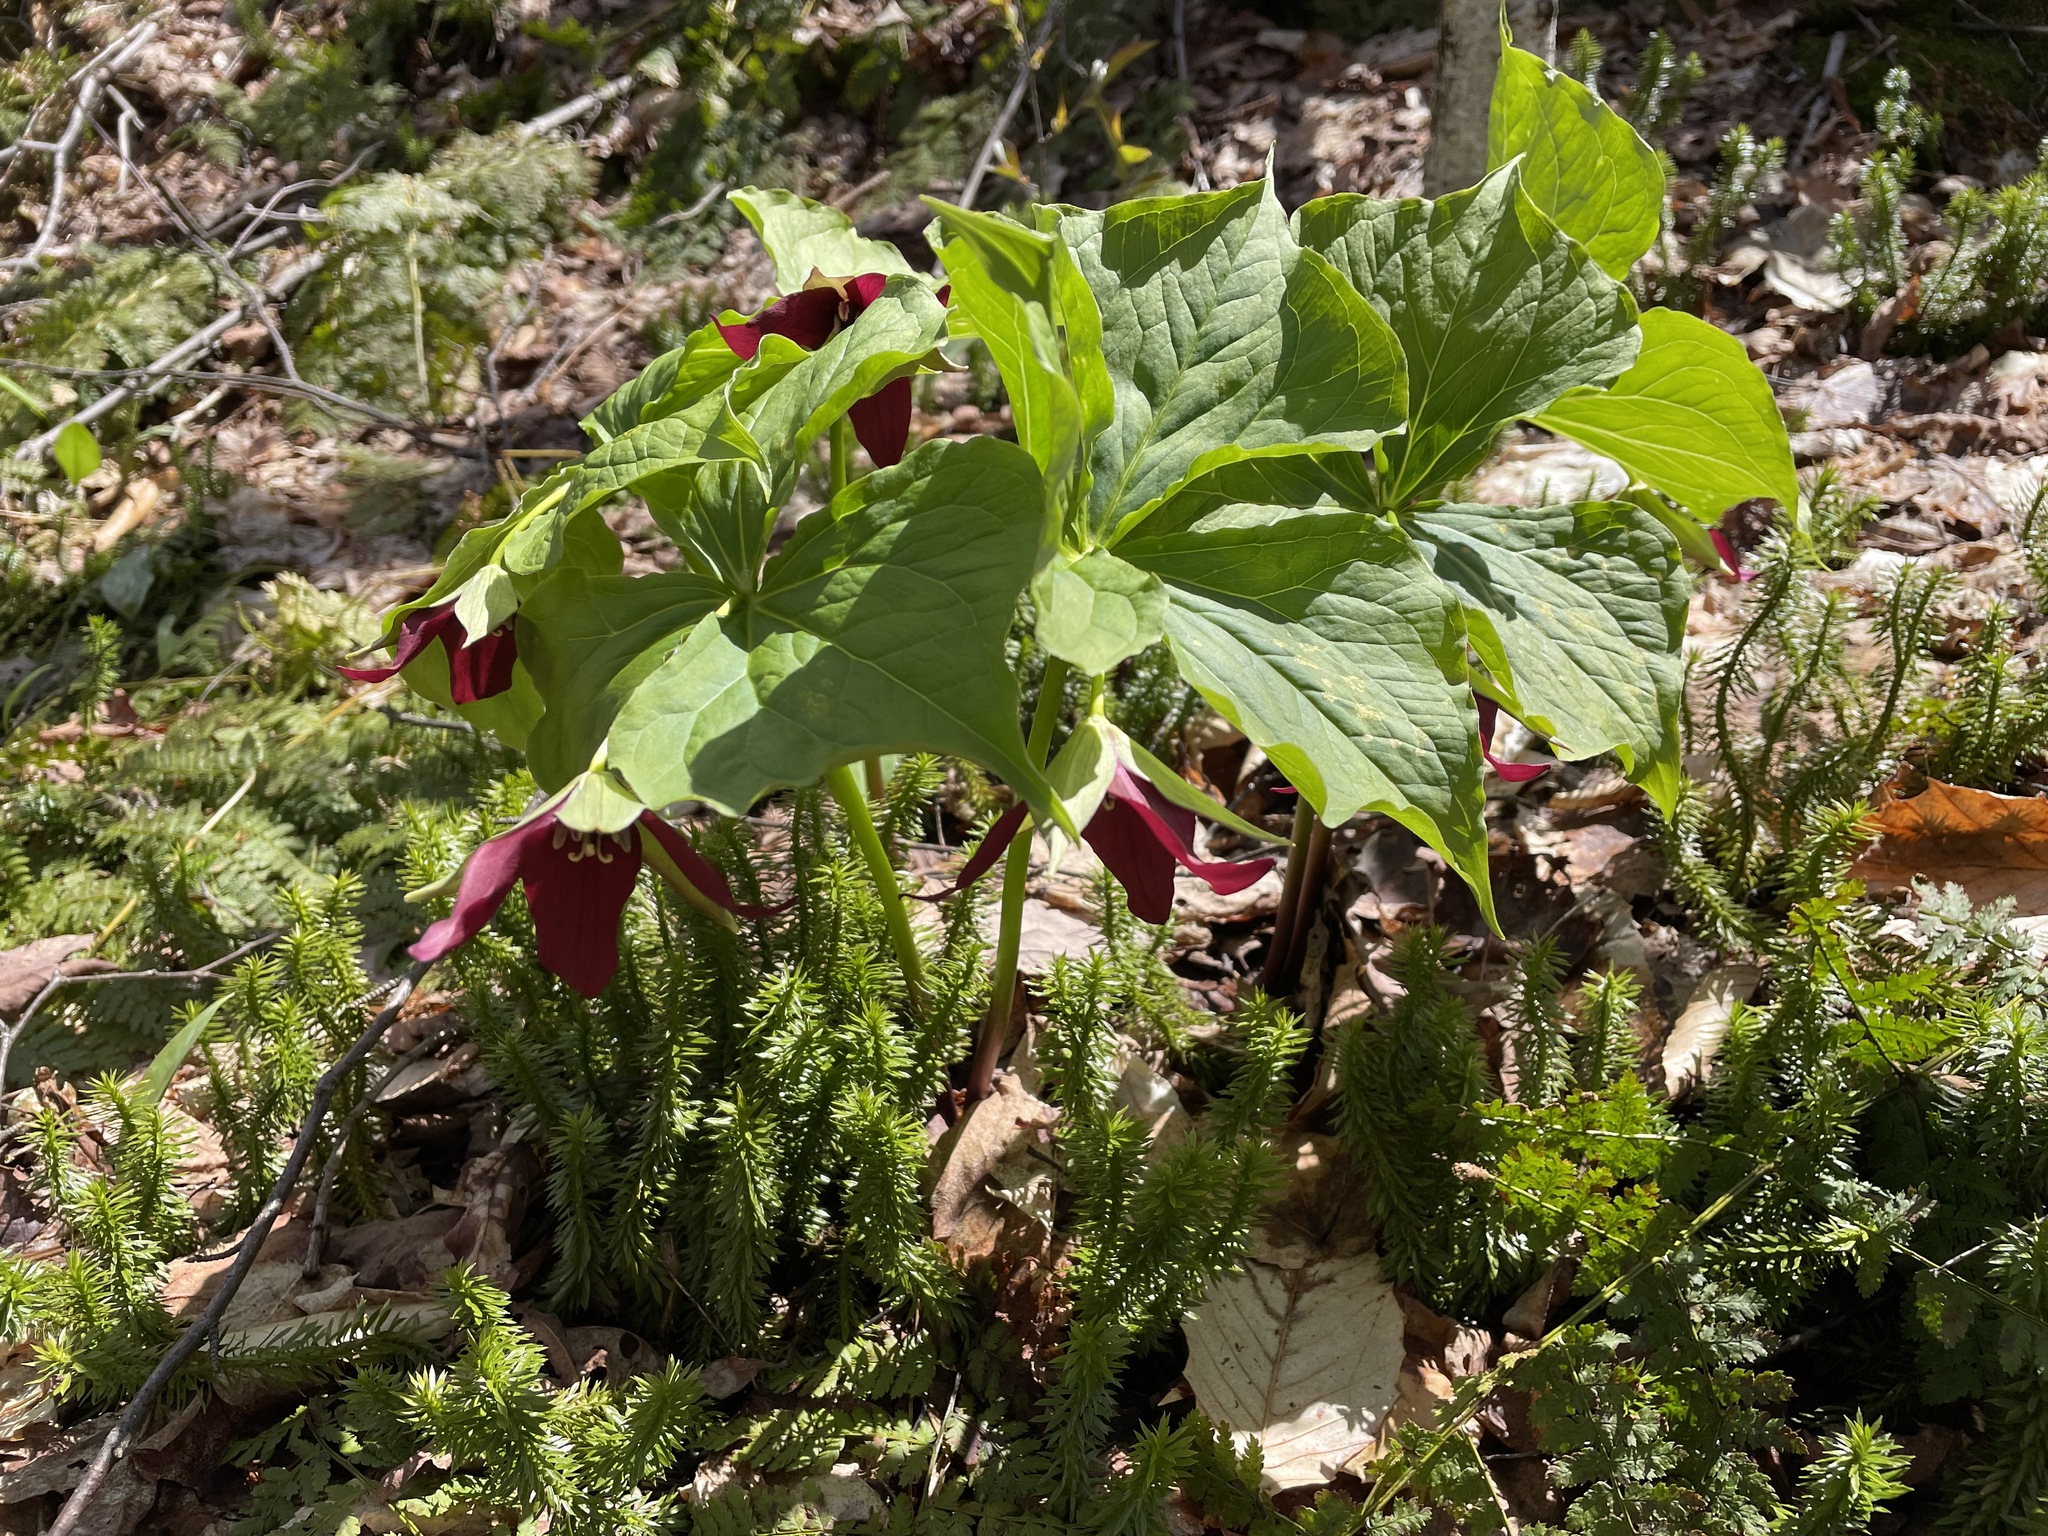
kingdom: Plantae
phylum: Tracheophyta
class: Liliopsida
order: Liliales
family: Melanthiaceae
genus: Trillium
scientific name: Trillium erectum
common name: Purple trillium
